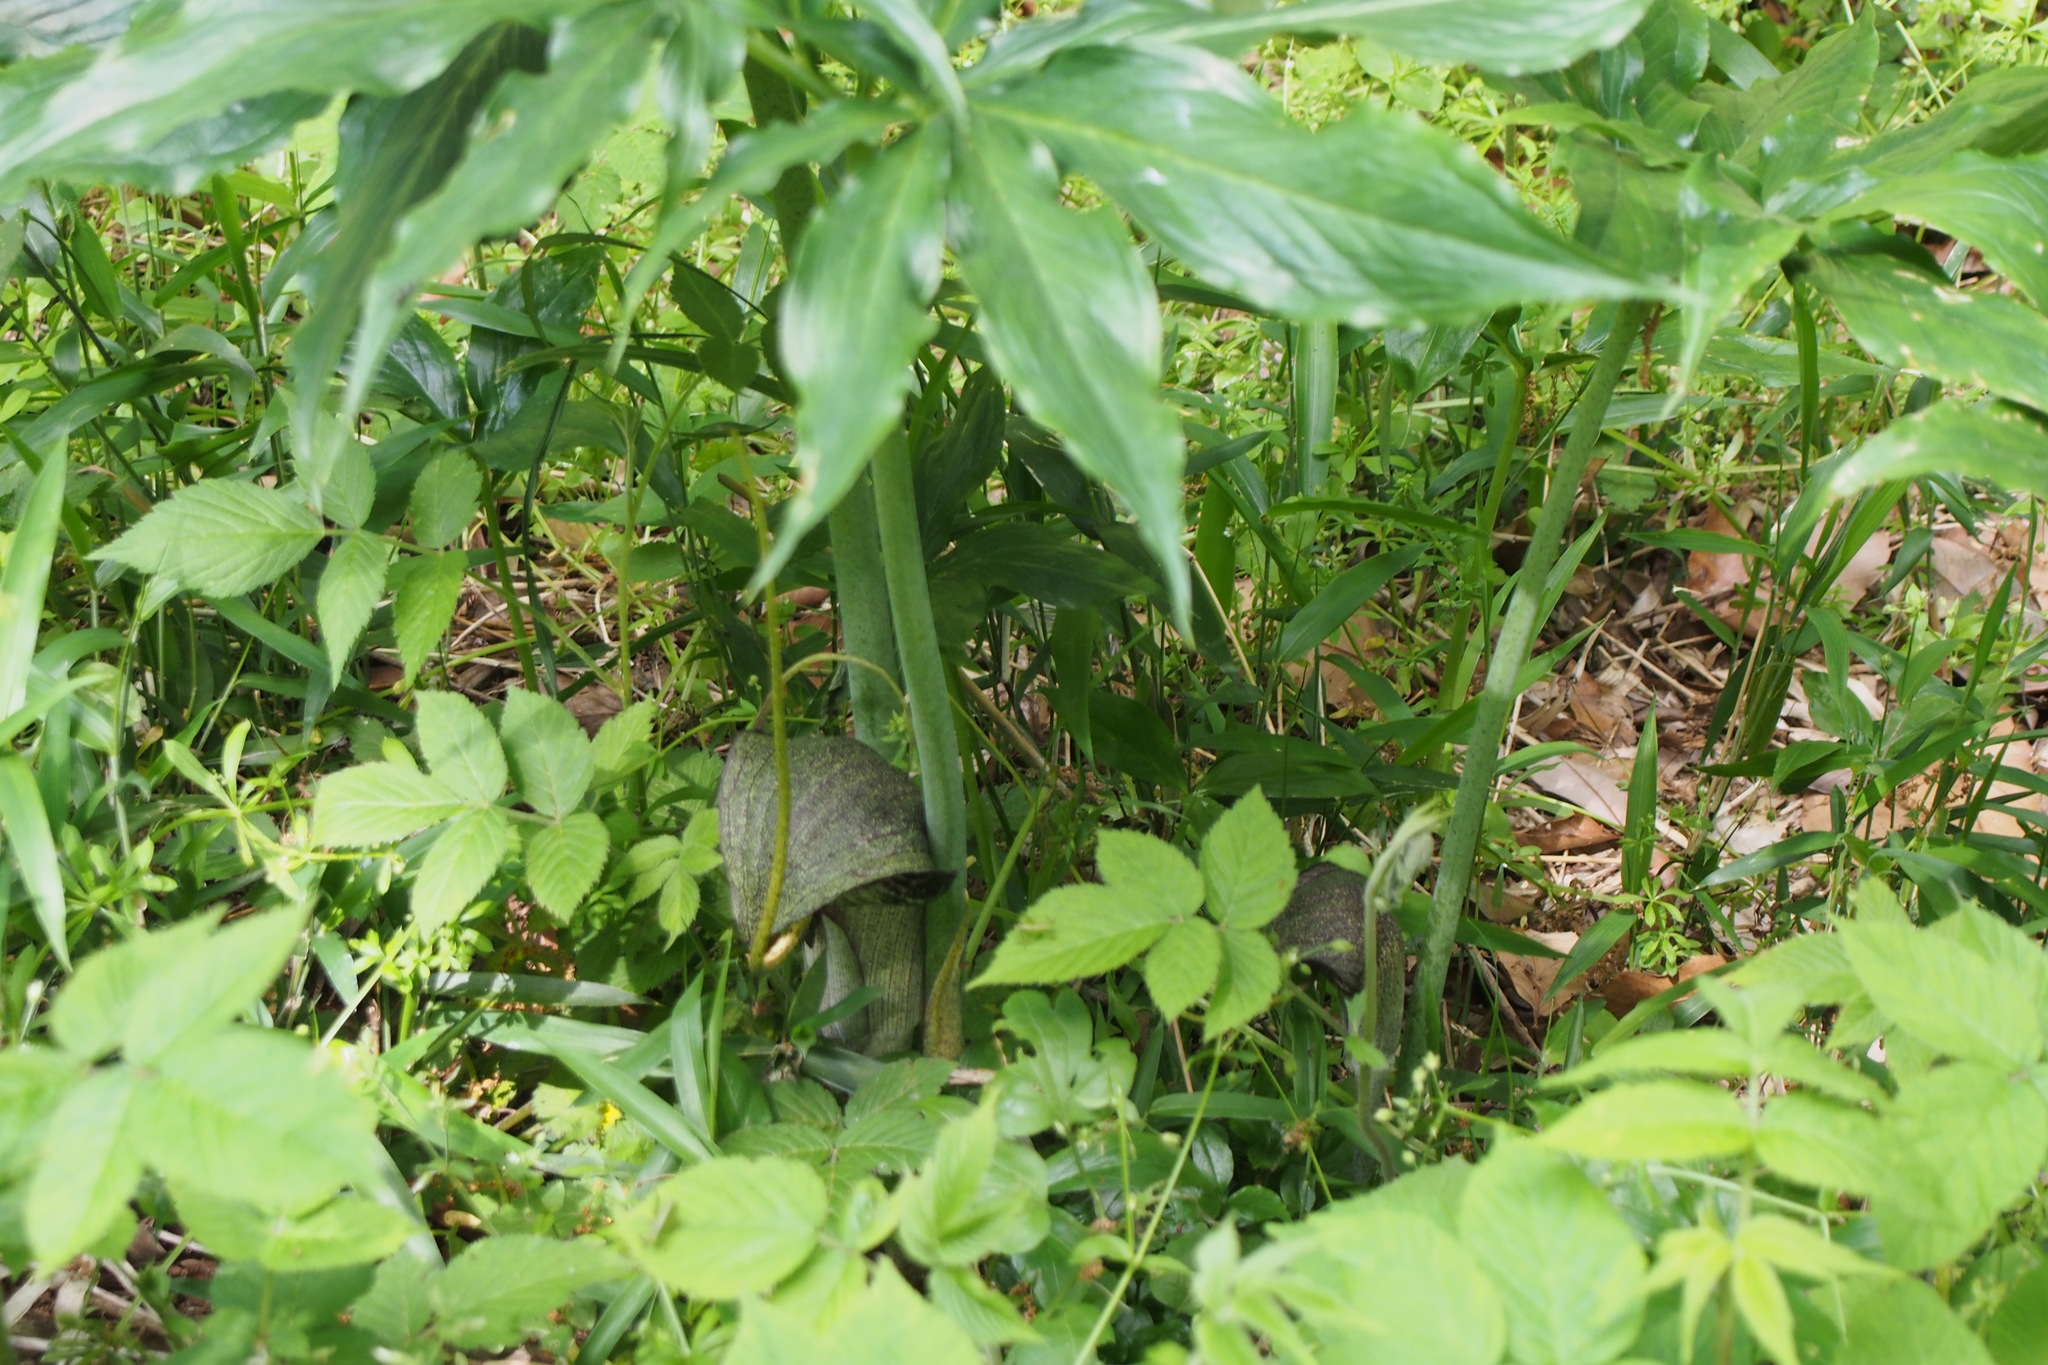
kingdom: Plantae
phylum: Tracheophyta
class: Liliopsida
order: Alismatales
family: Araceae
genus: Arisaema
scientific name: Arisaema thunbergii
